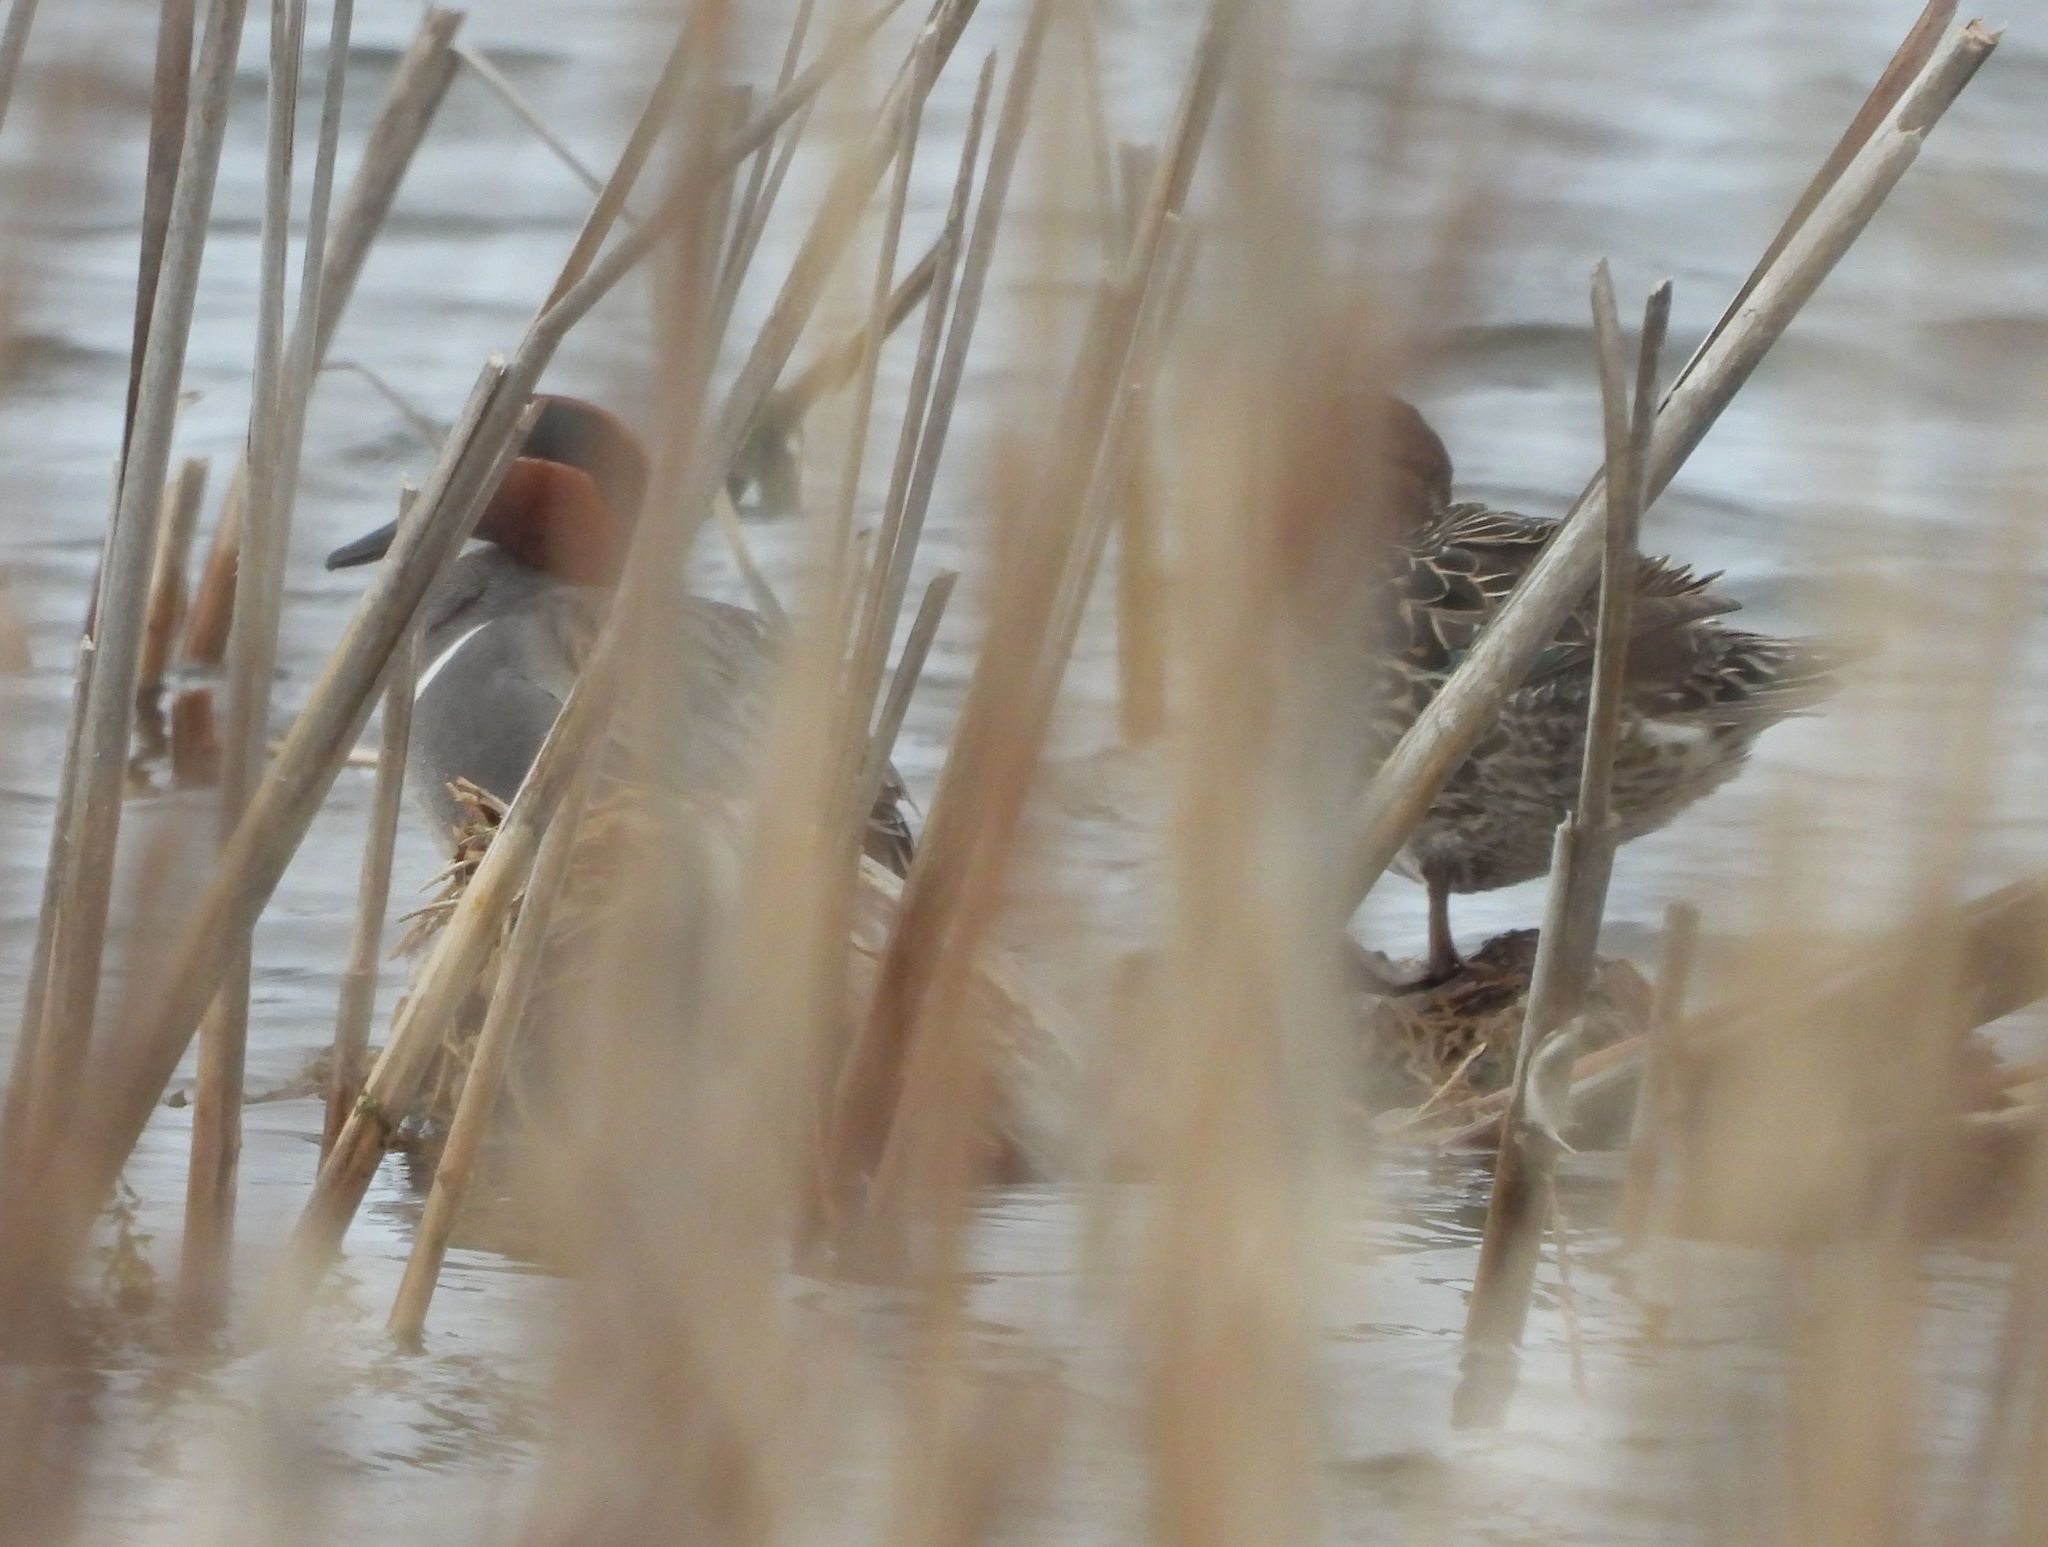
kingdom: Animalia
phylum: Chordata
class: Aves
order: Anseriformes
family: Anatidae
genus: Anas
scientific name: Anas crecca
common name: Eurasian teal
